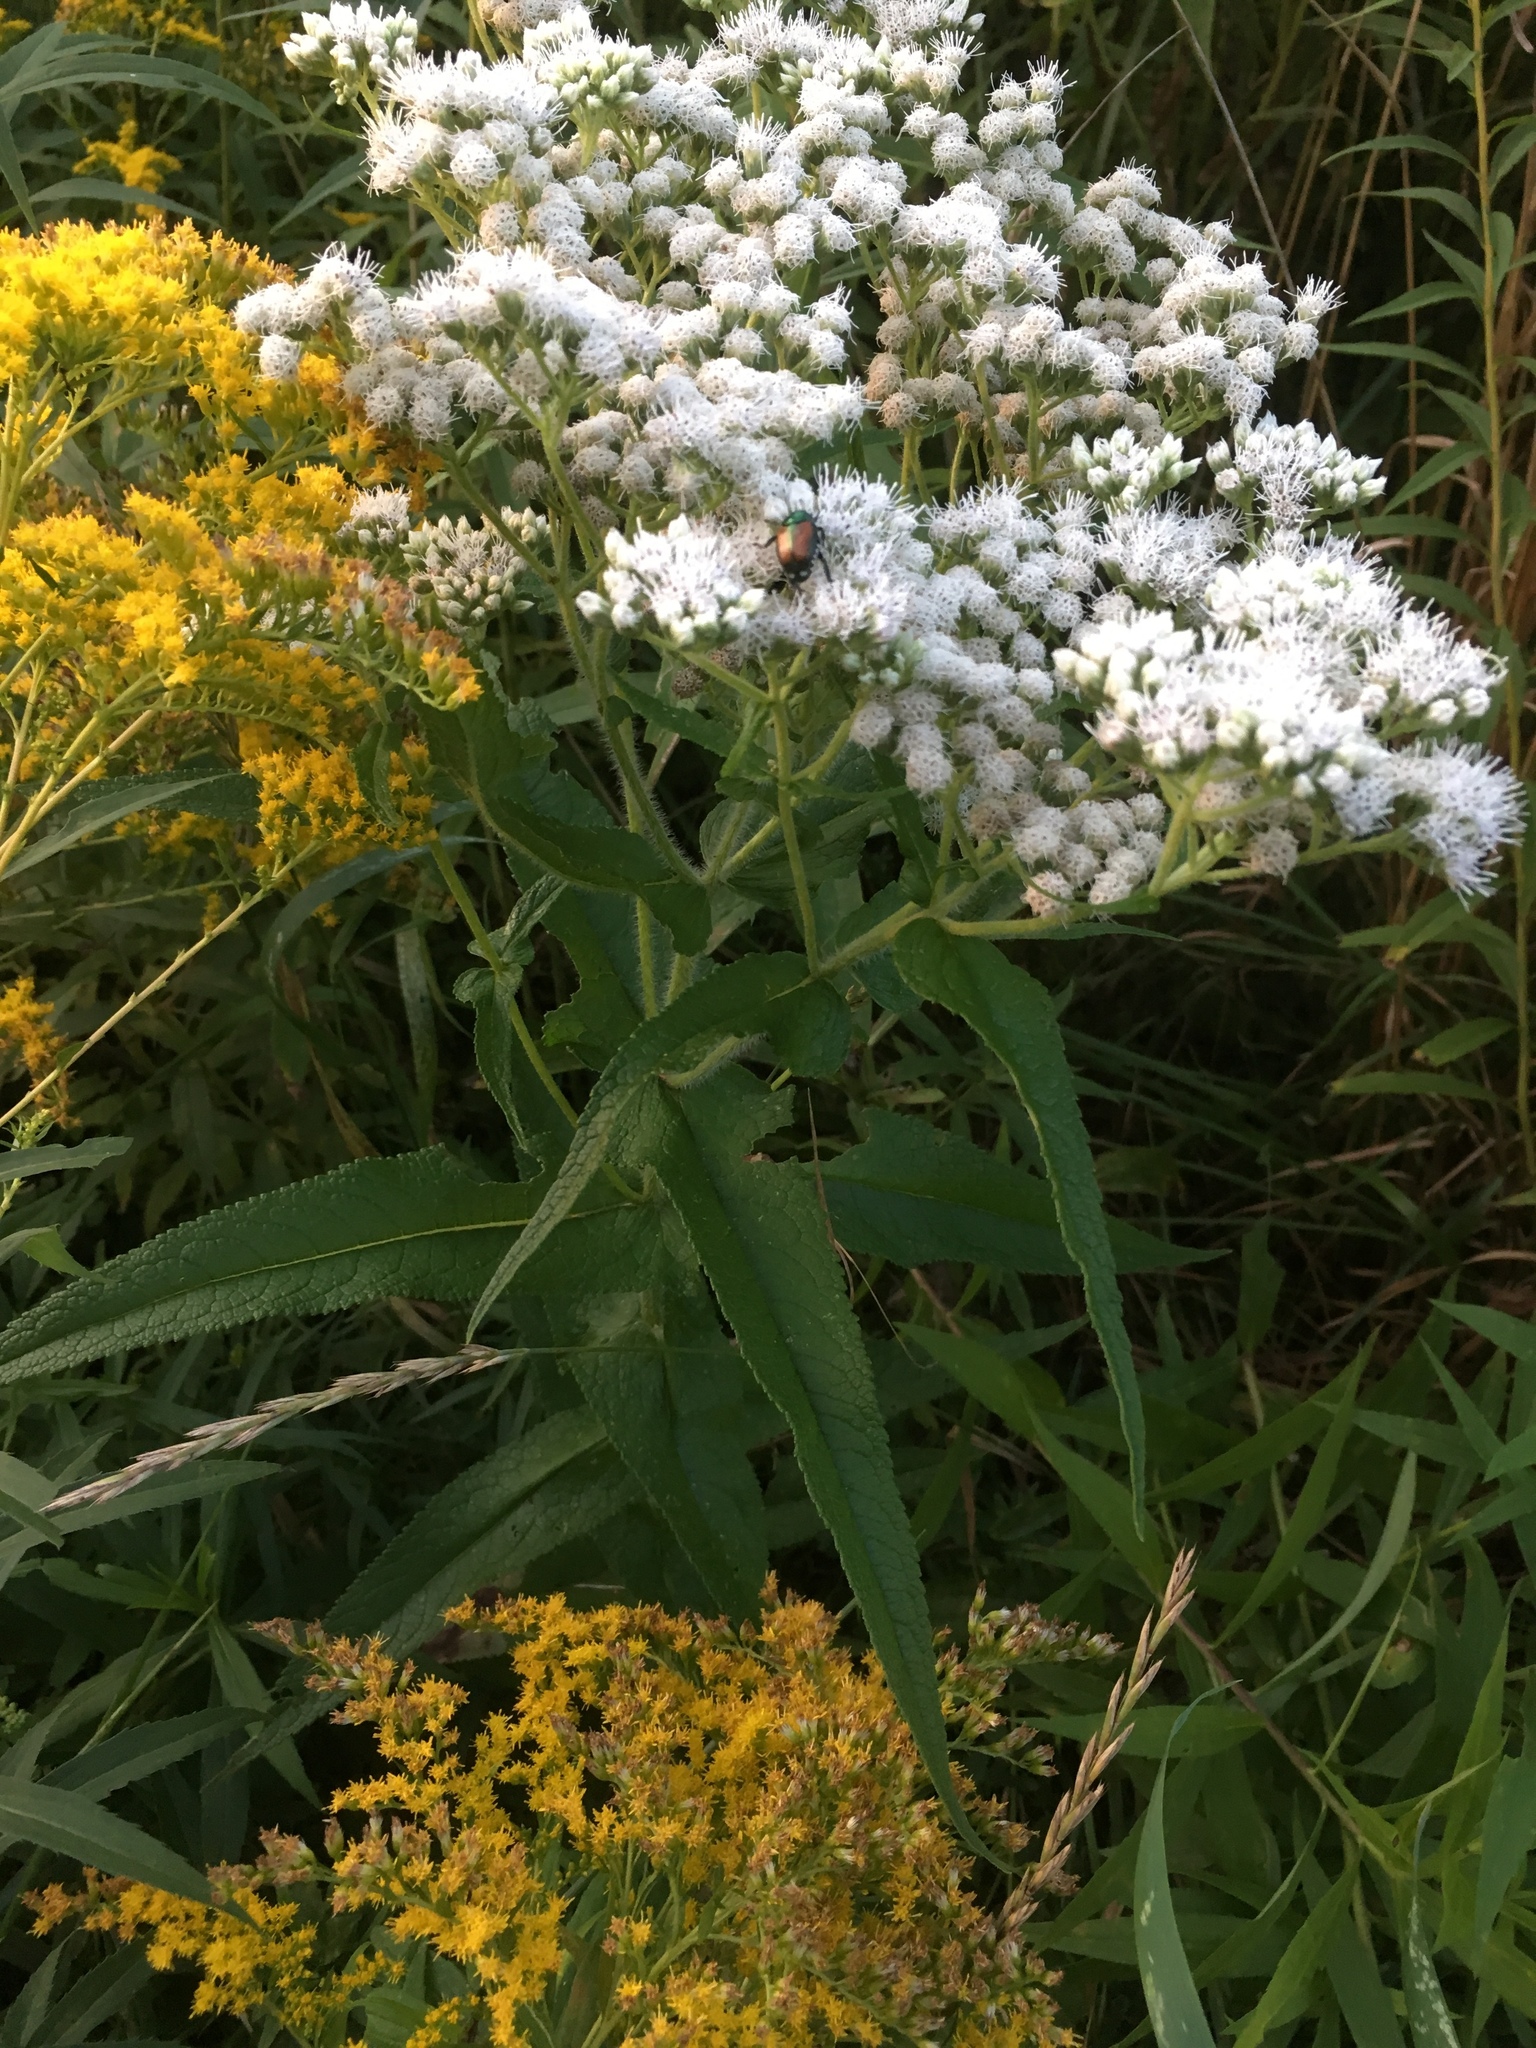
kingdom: Plantae
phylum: Tracheophyta
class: Magnoliopsida
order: Asterales
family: Asteraceae
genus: Eupatorium
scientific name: Eupatorium perfoliatum
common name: Boneset
